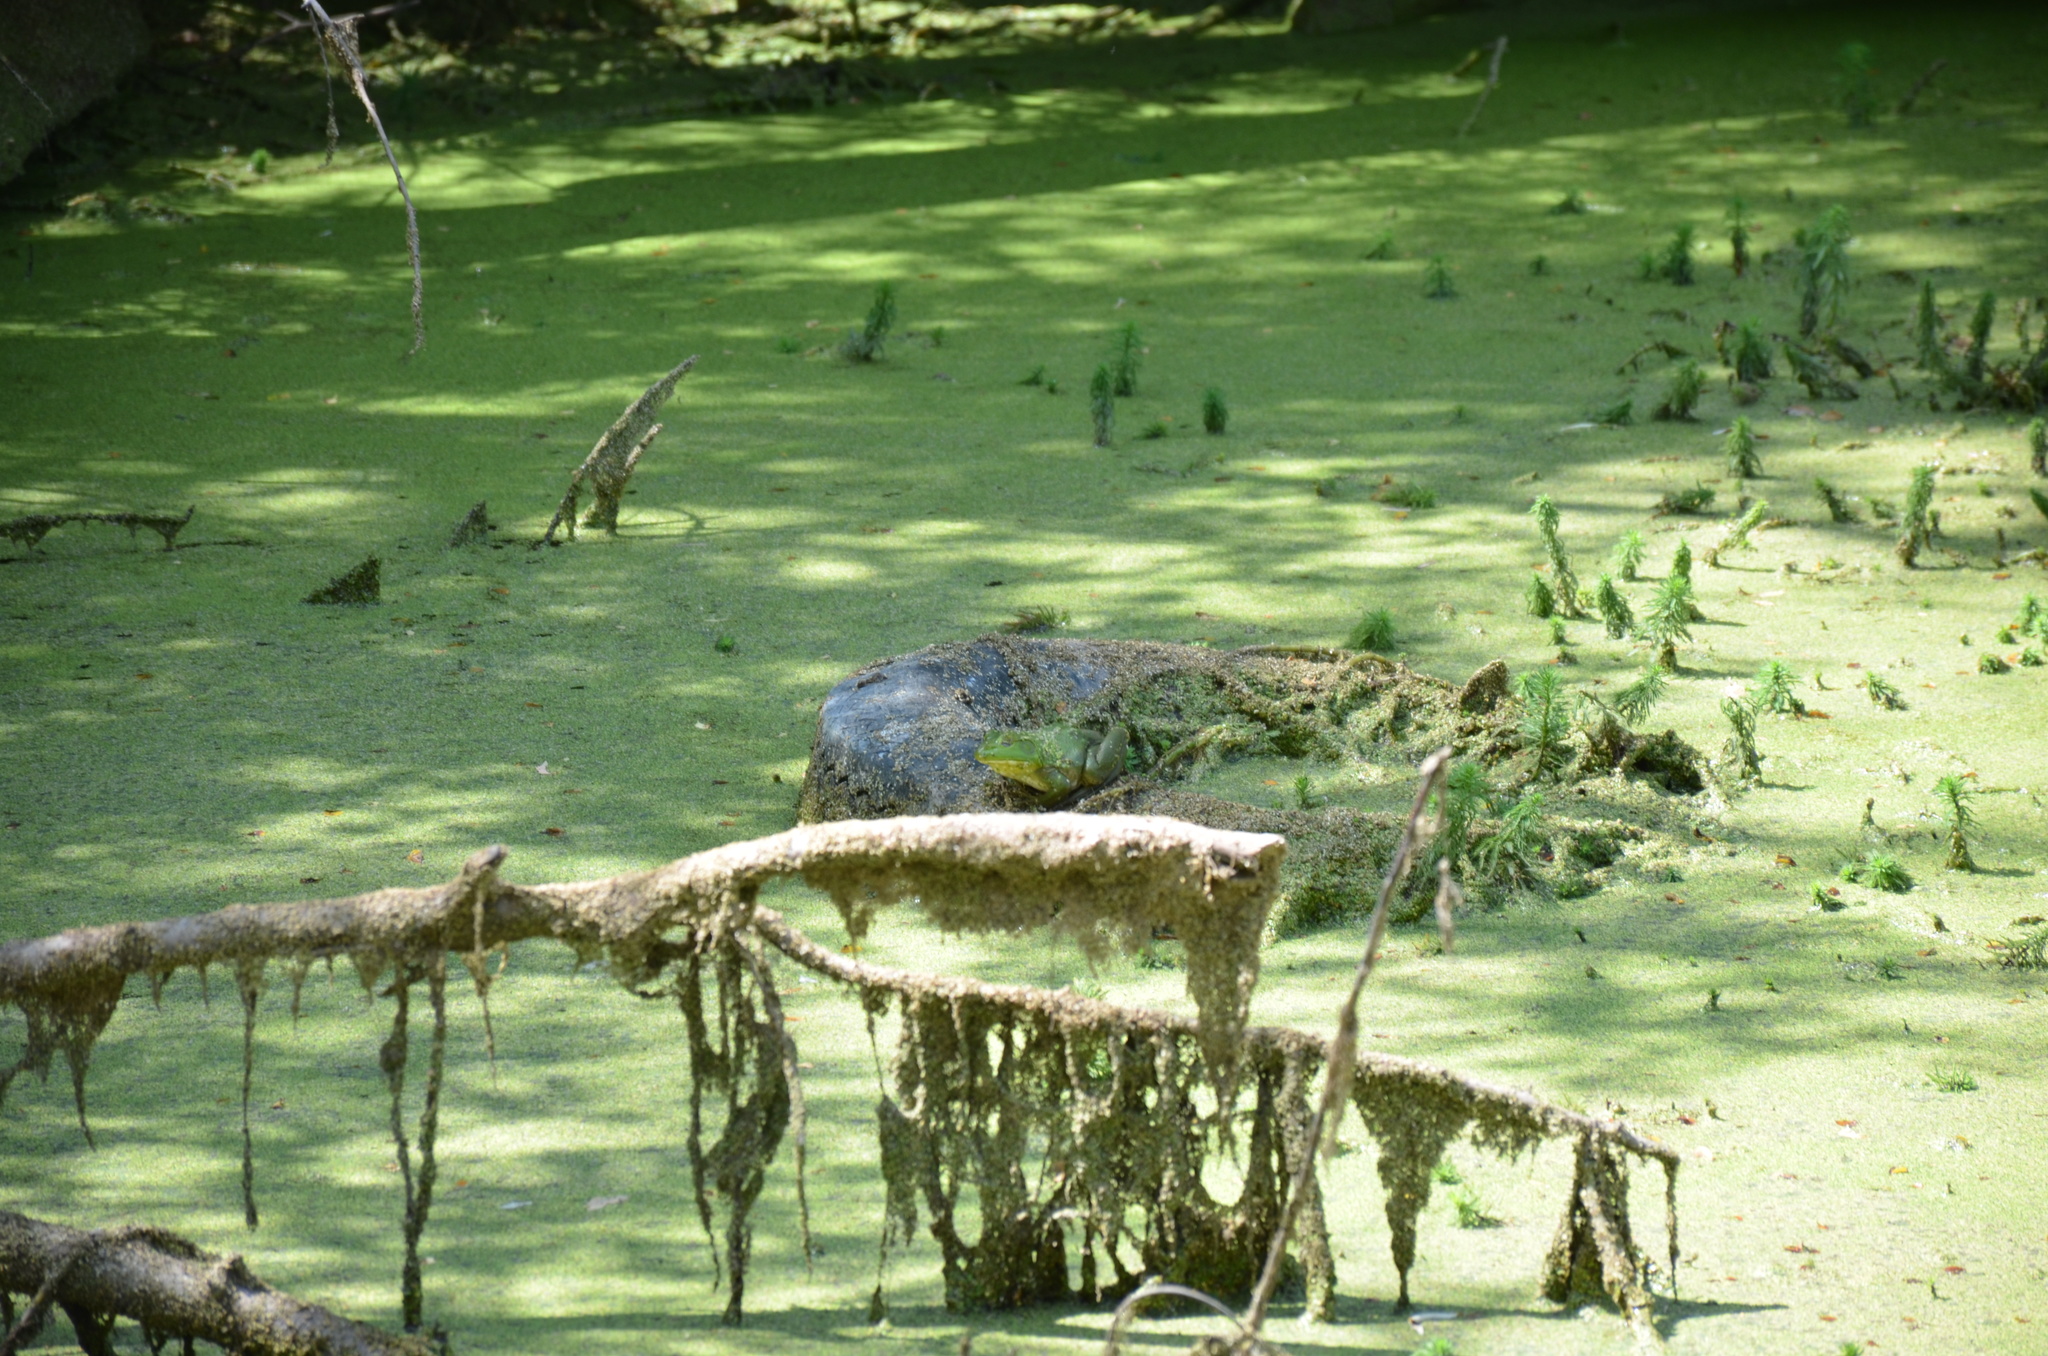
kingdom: Animalia
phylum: Chordata
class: Amphibia
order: Anura
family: Ranidae
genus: Lithobates
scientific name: Lithobates catesbeianus
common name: American bullfrog
